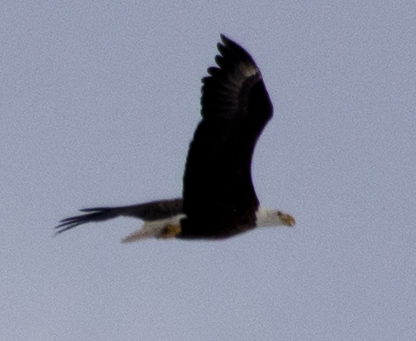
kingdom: Animalia
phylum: Chordata
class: Aves
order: Accipitriformes
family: Accipitridae
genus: Haliaeetus
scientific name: Haliaeetus leucocephalus
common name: Bald eagle
